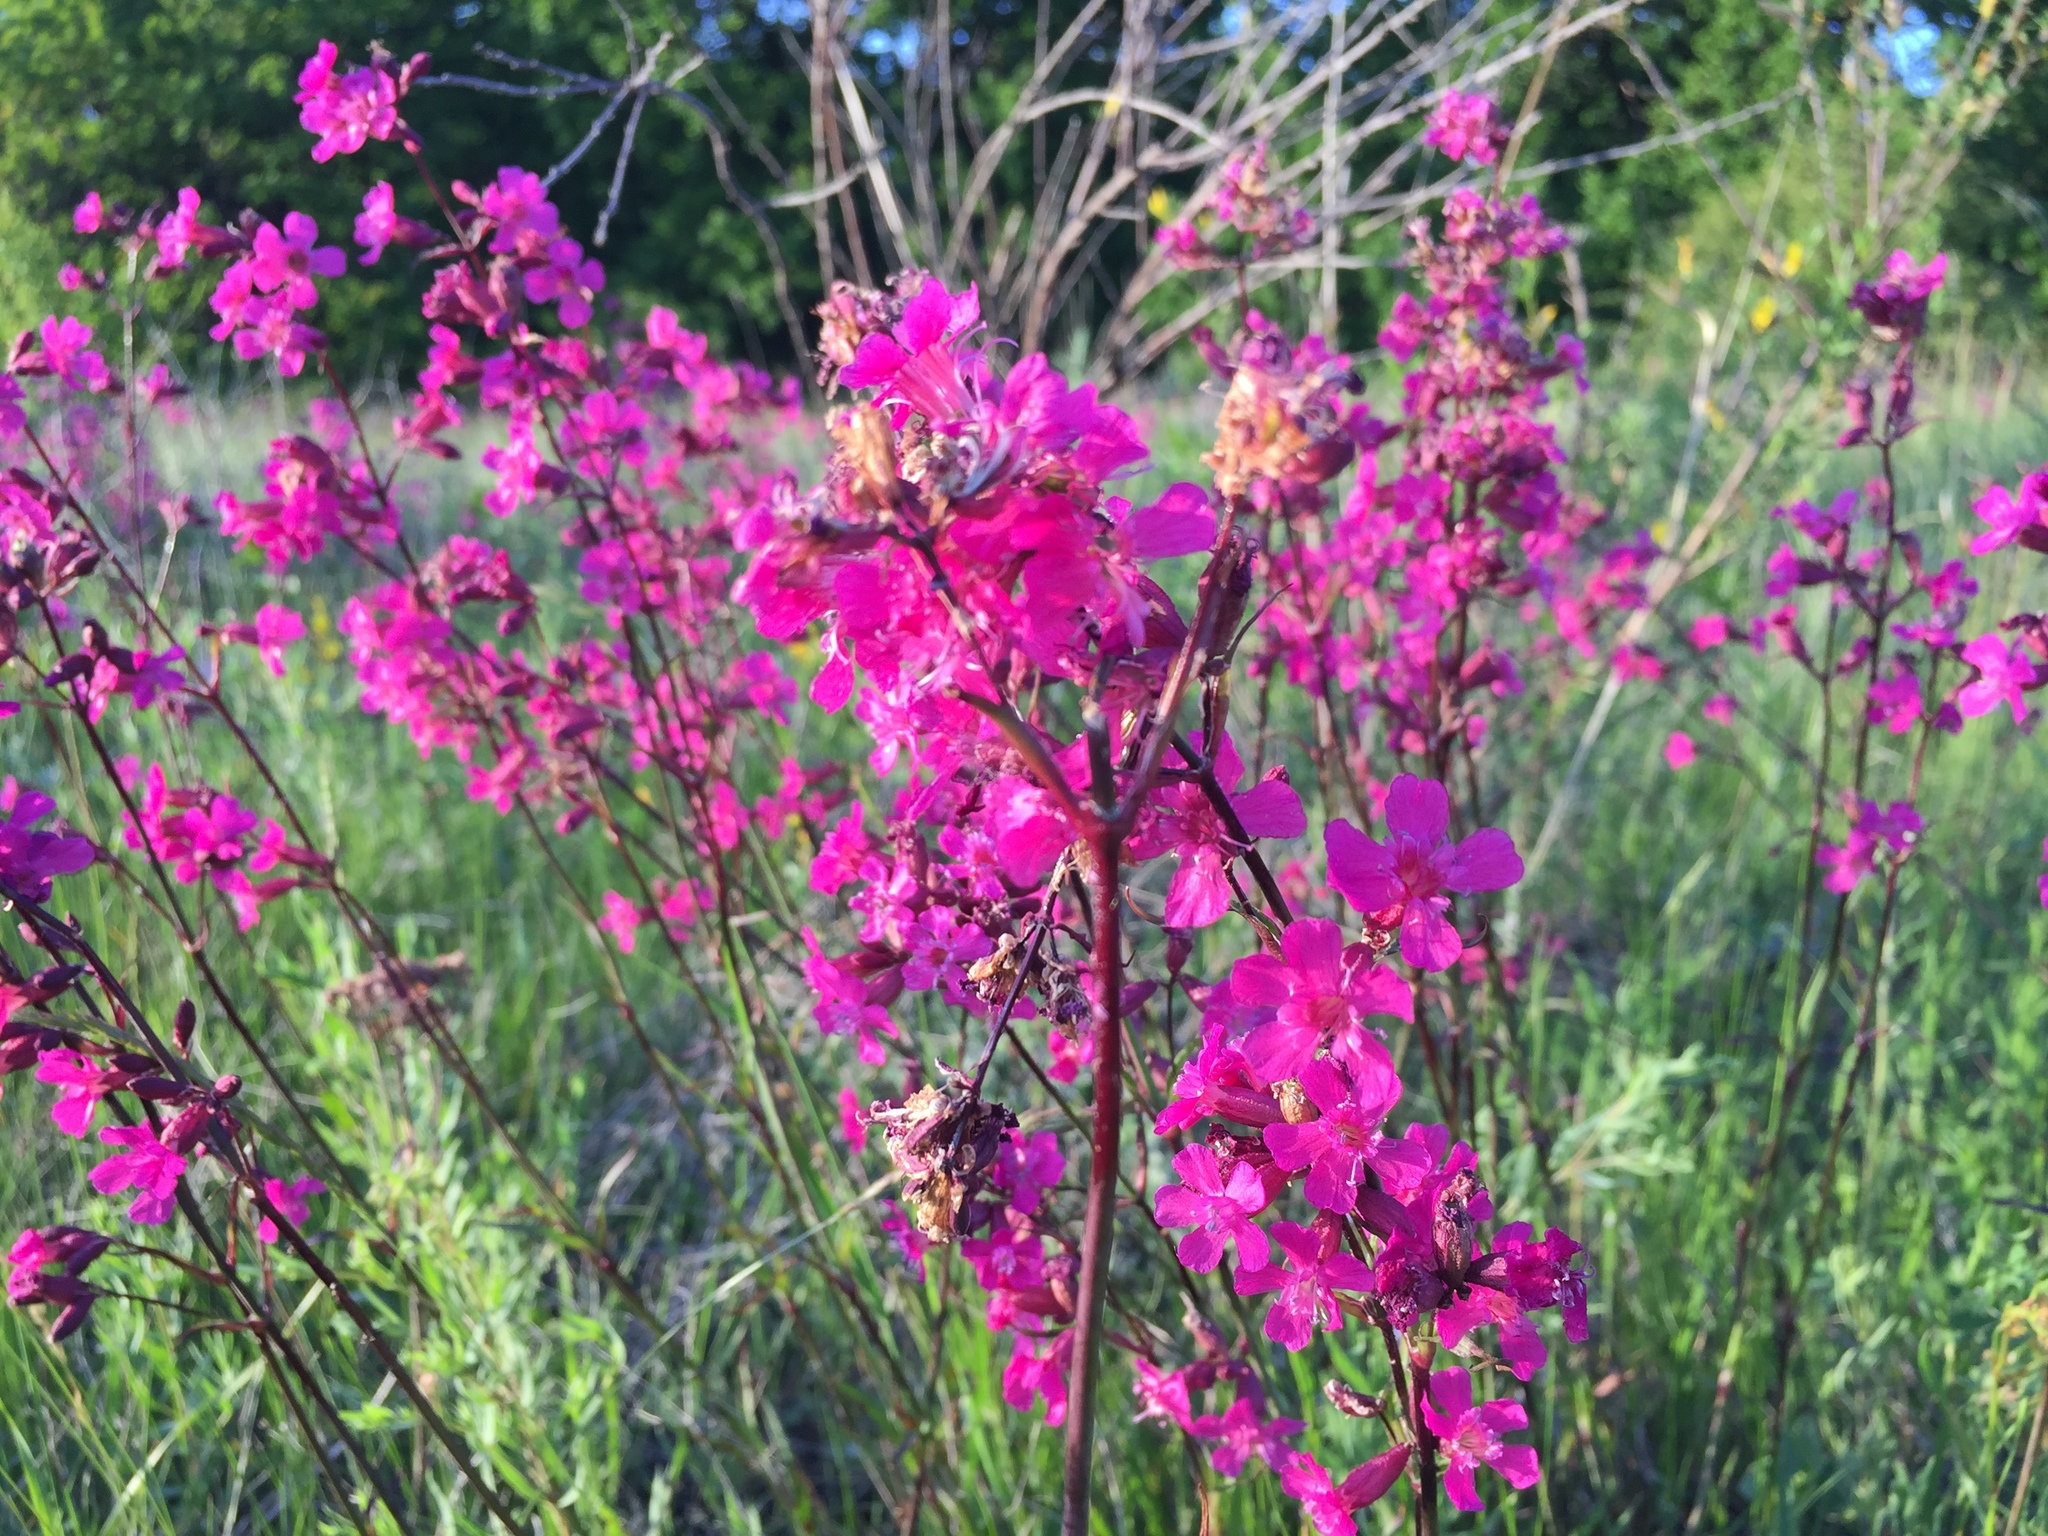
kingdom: Plantae
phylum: Tracheophyta
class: Magnoliopsida
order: Caryophyllales
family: Caryophyllaceae
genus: Viscaria
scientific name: Viscaria vulgaris
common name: Clammy campion
